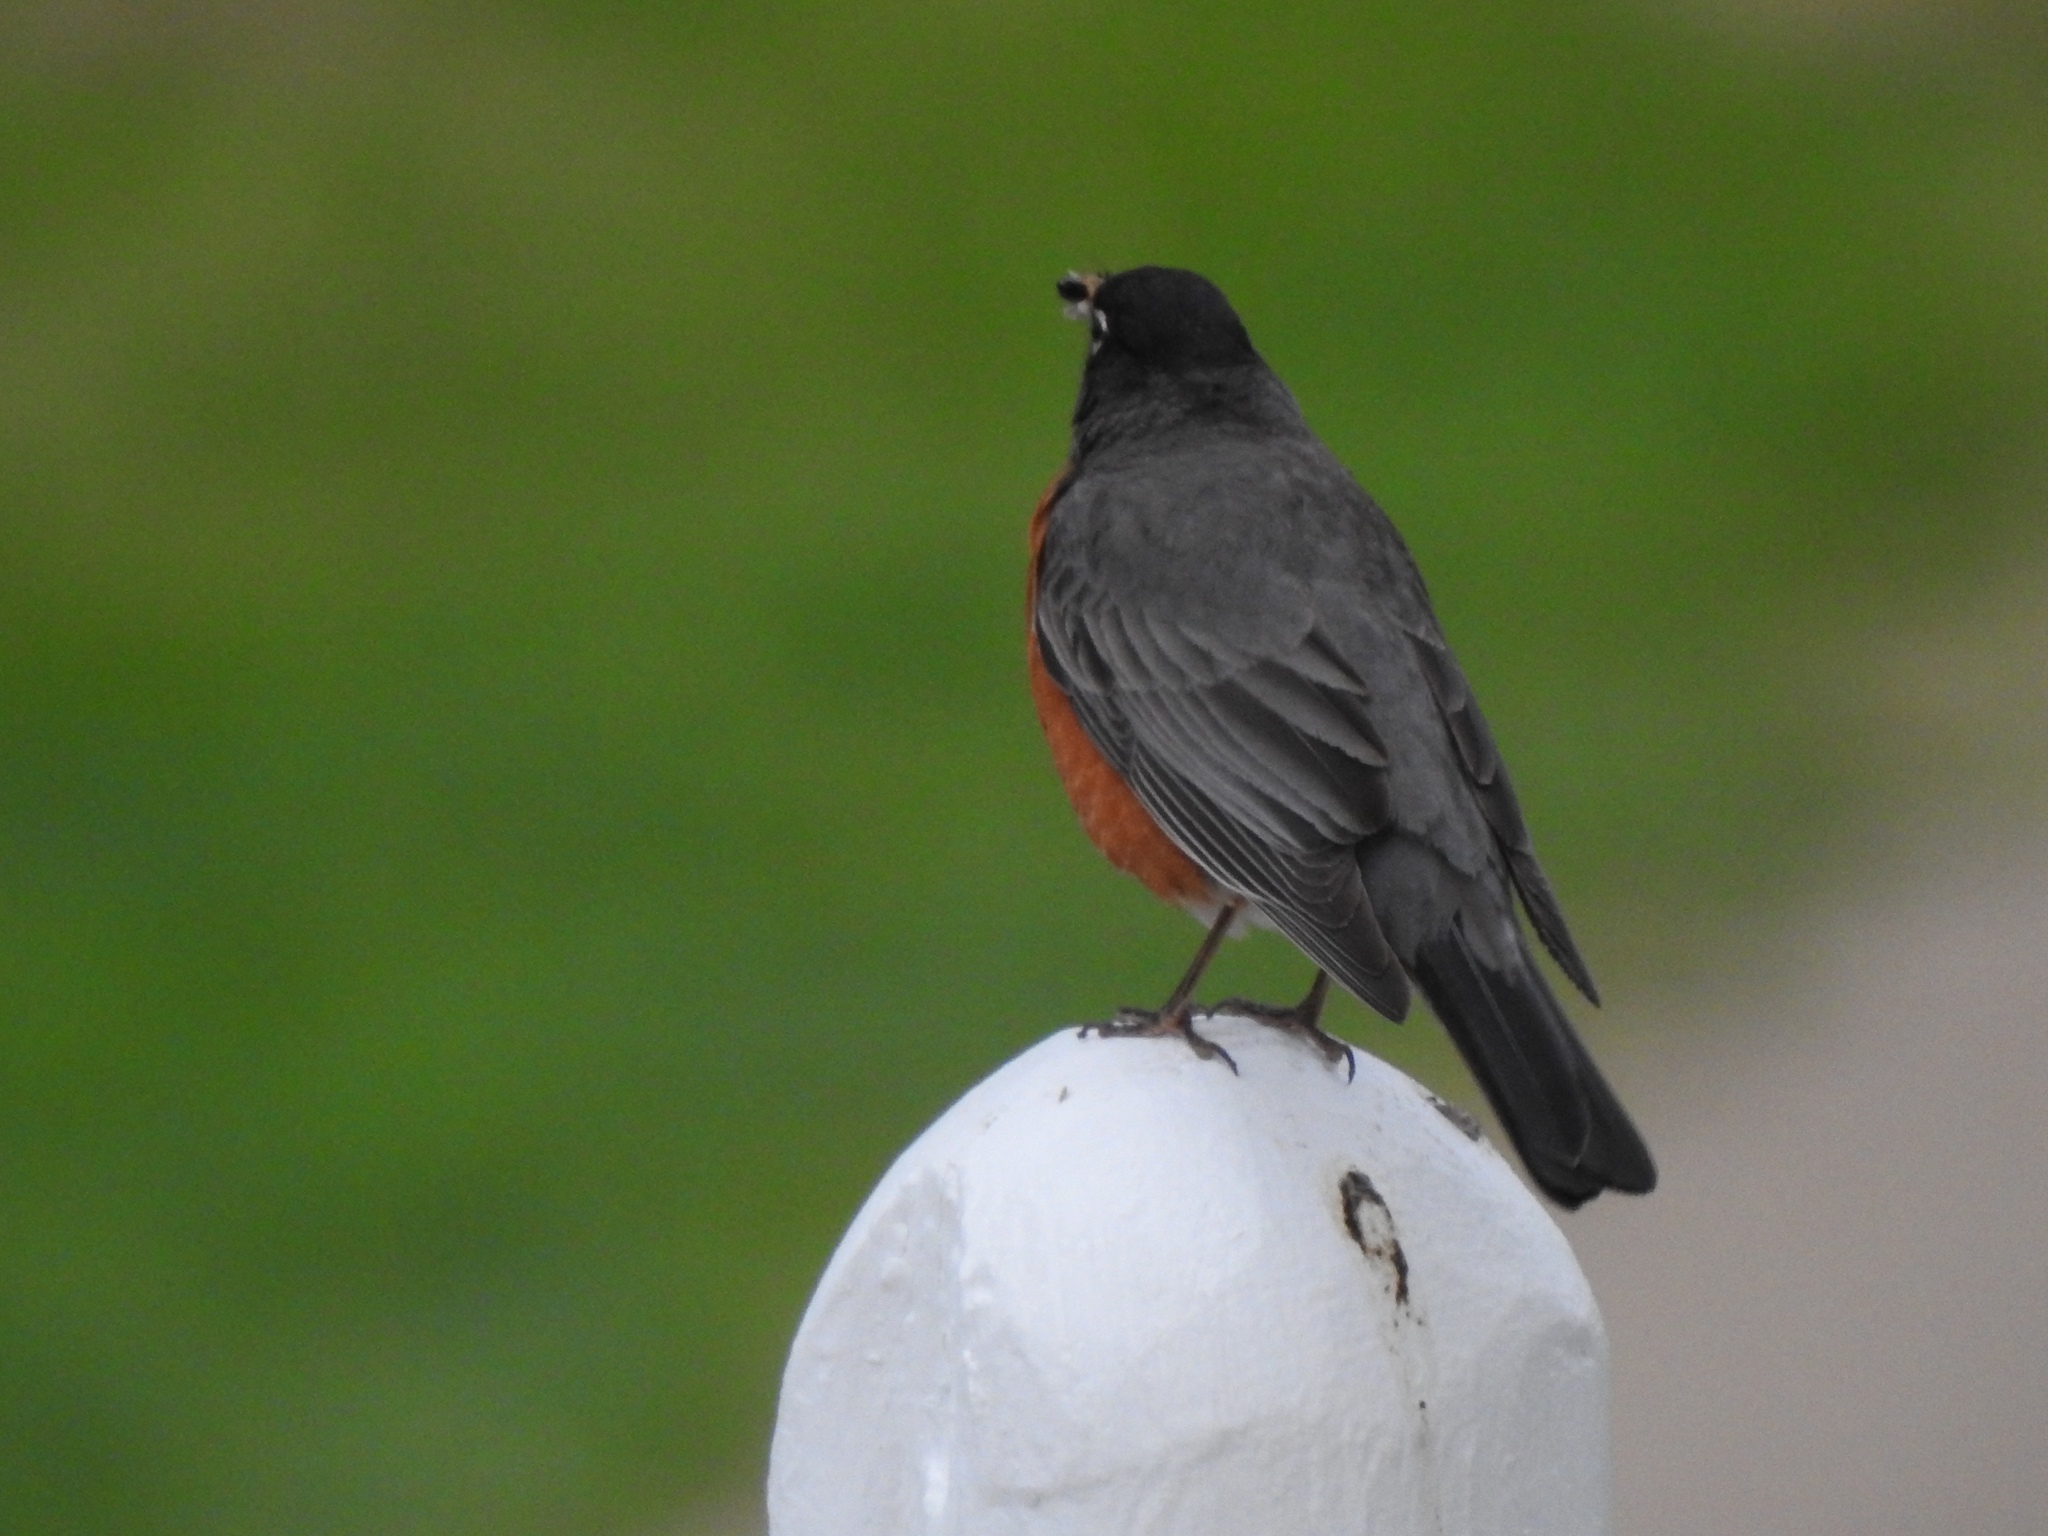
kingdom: Animalia
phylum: Chordata
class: Aves
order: Passeriformes
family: Turdidae
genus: Turdus
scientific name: Turdus migratorius
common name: American robin
